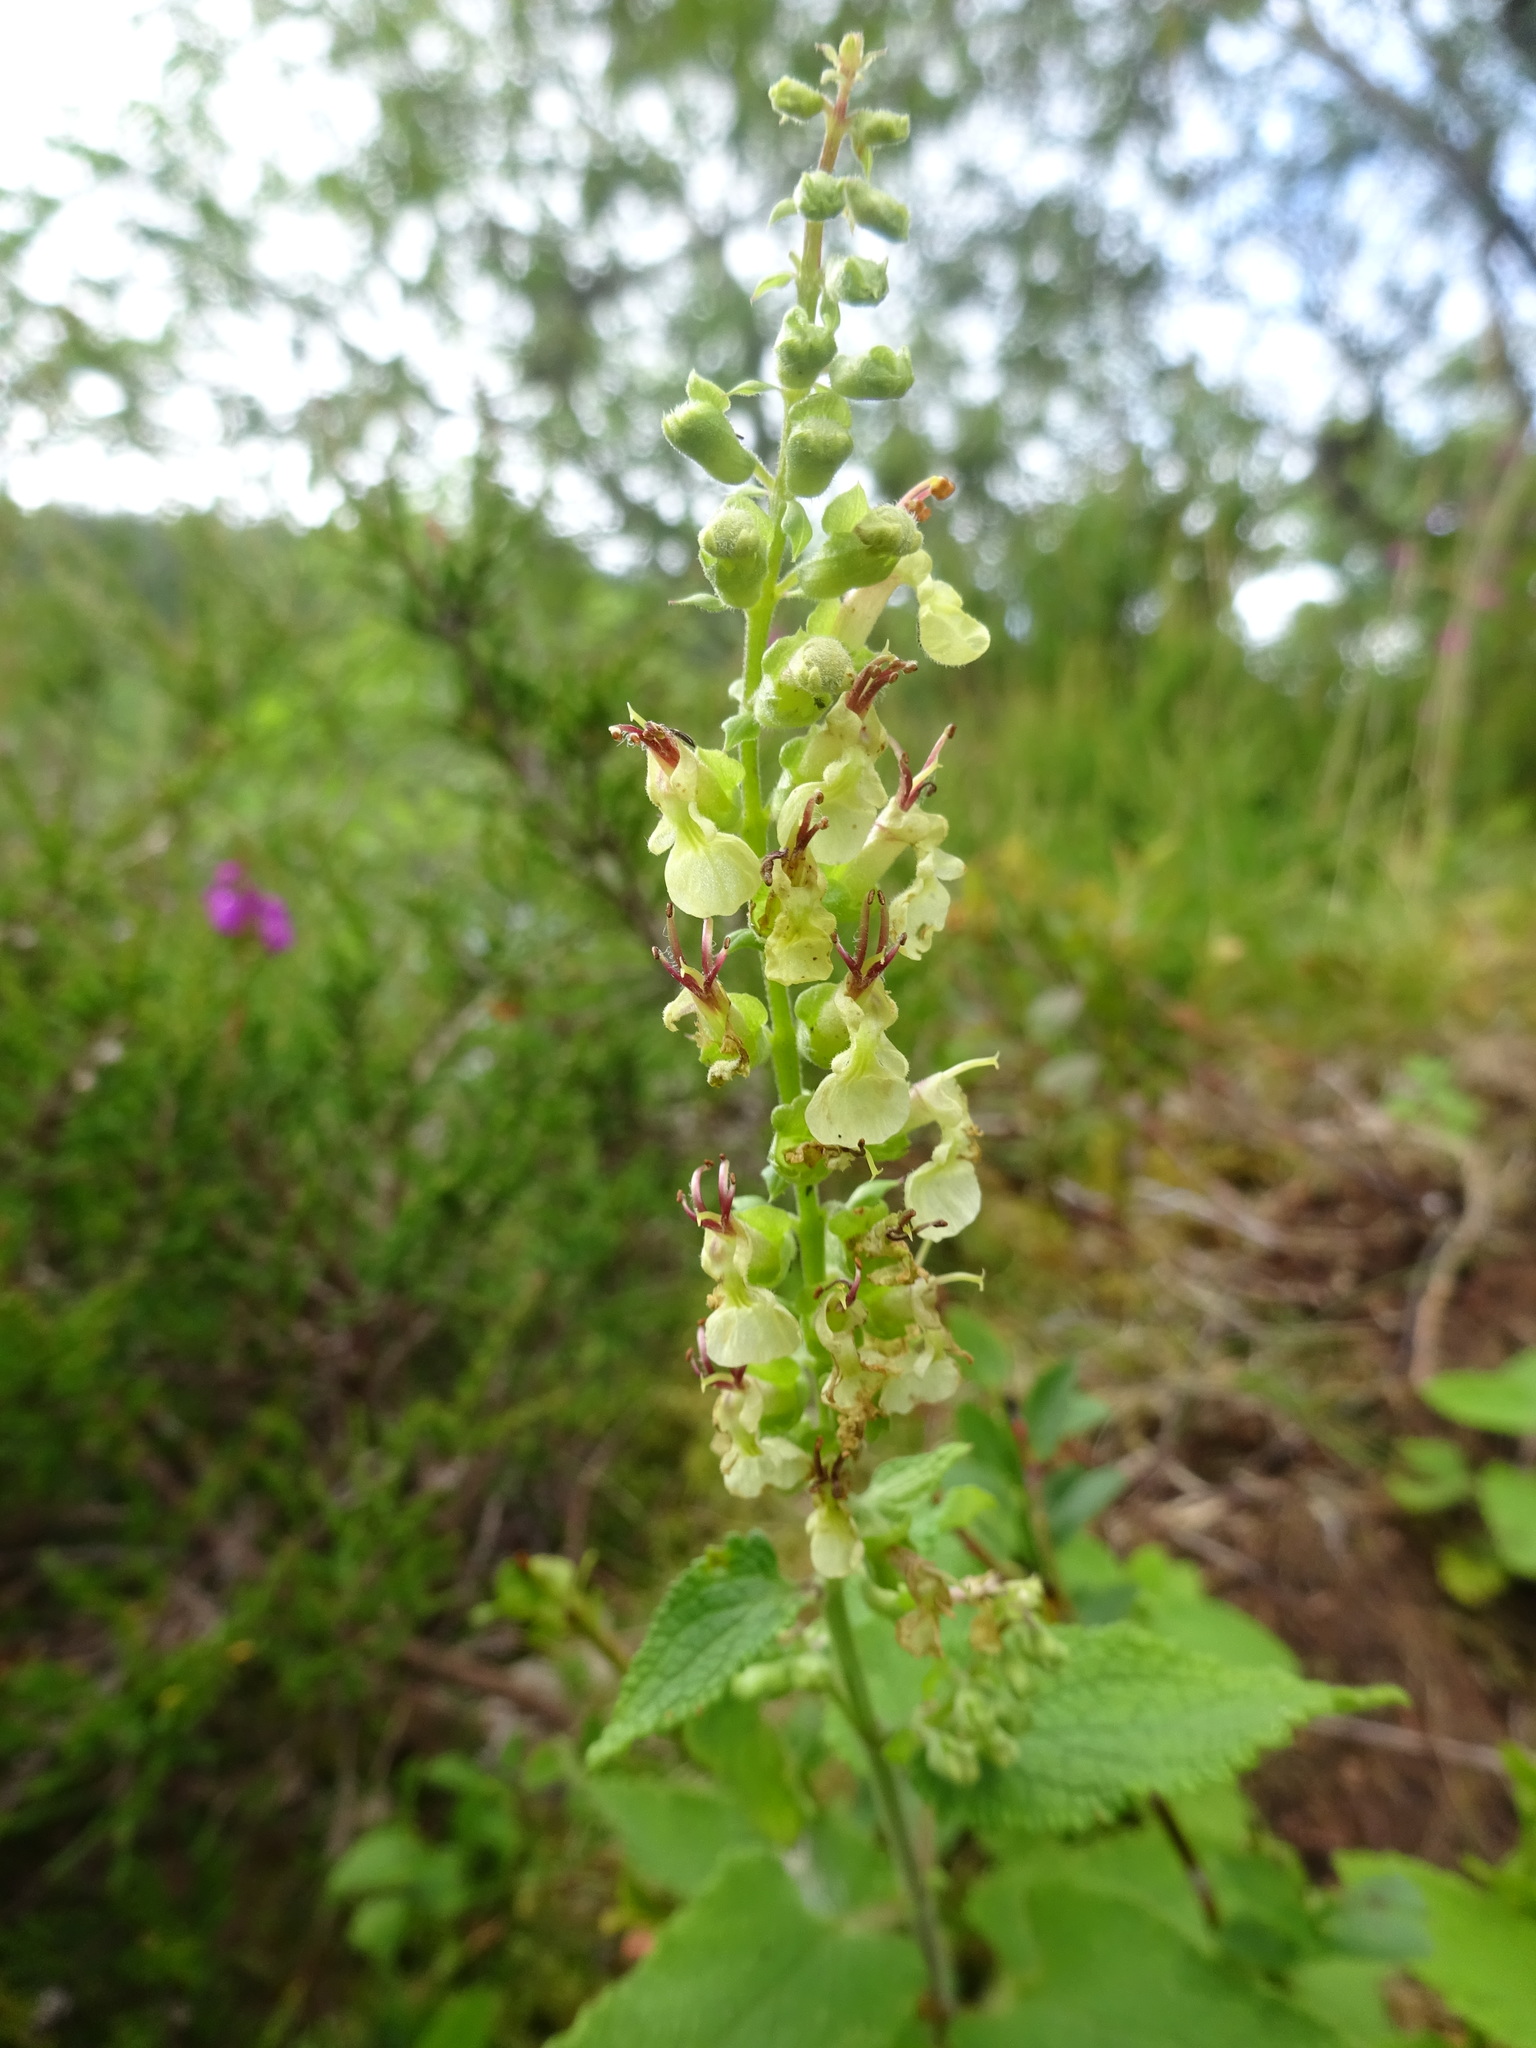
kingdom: Plantae
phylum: Tracheophyta
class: Magnoliopsida
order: Lamiales
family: Lamiaceae
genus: Teucrium
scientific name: Teucrium scorodonia
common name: Woodland germander
